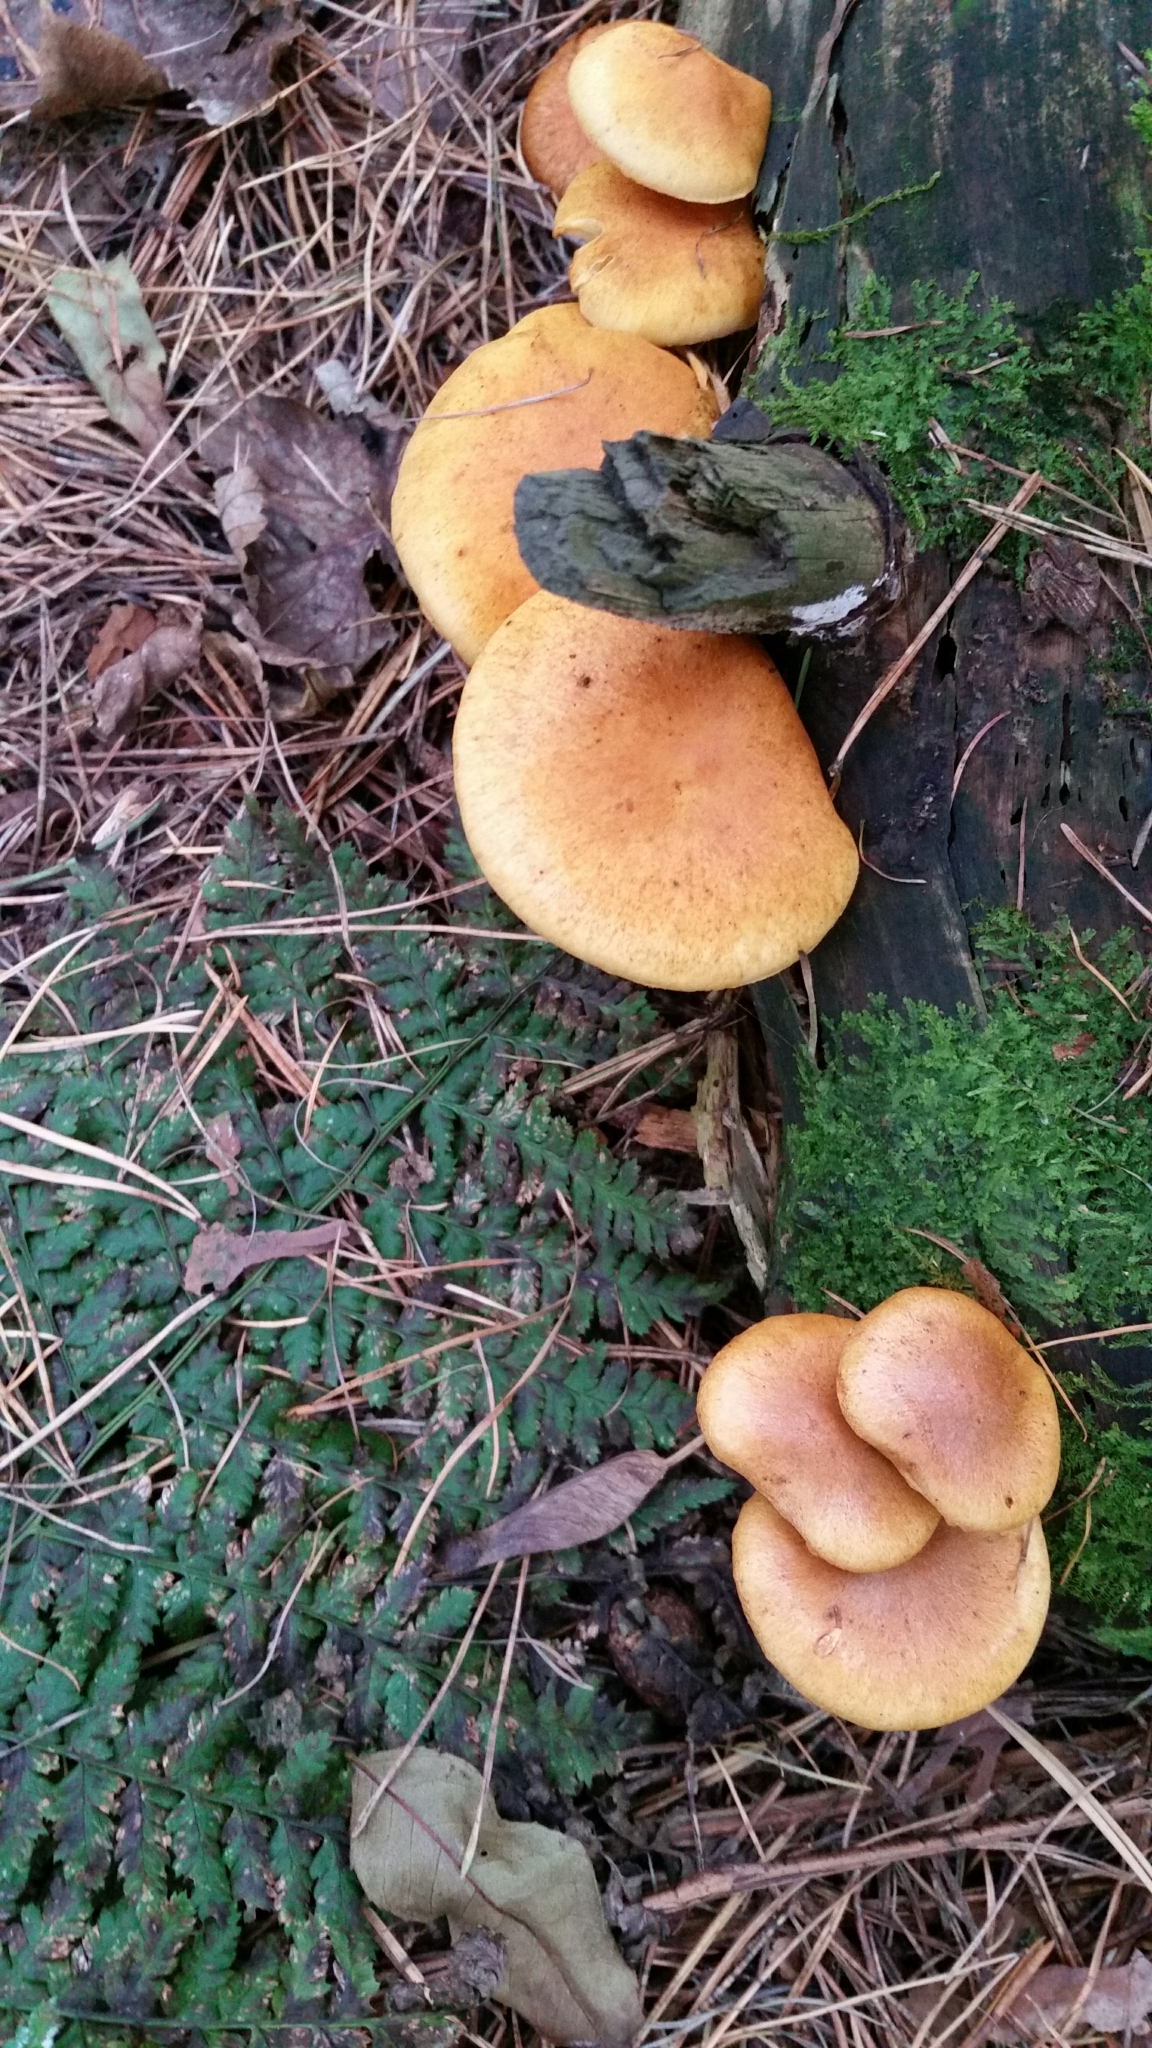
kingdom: Fungi
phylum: Basidiomycota
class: Agaricomycetes
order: Agaricales
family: Hymenogastraceae
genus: Gymnopilus
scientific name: Gymnopilus
